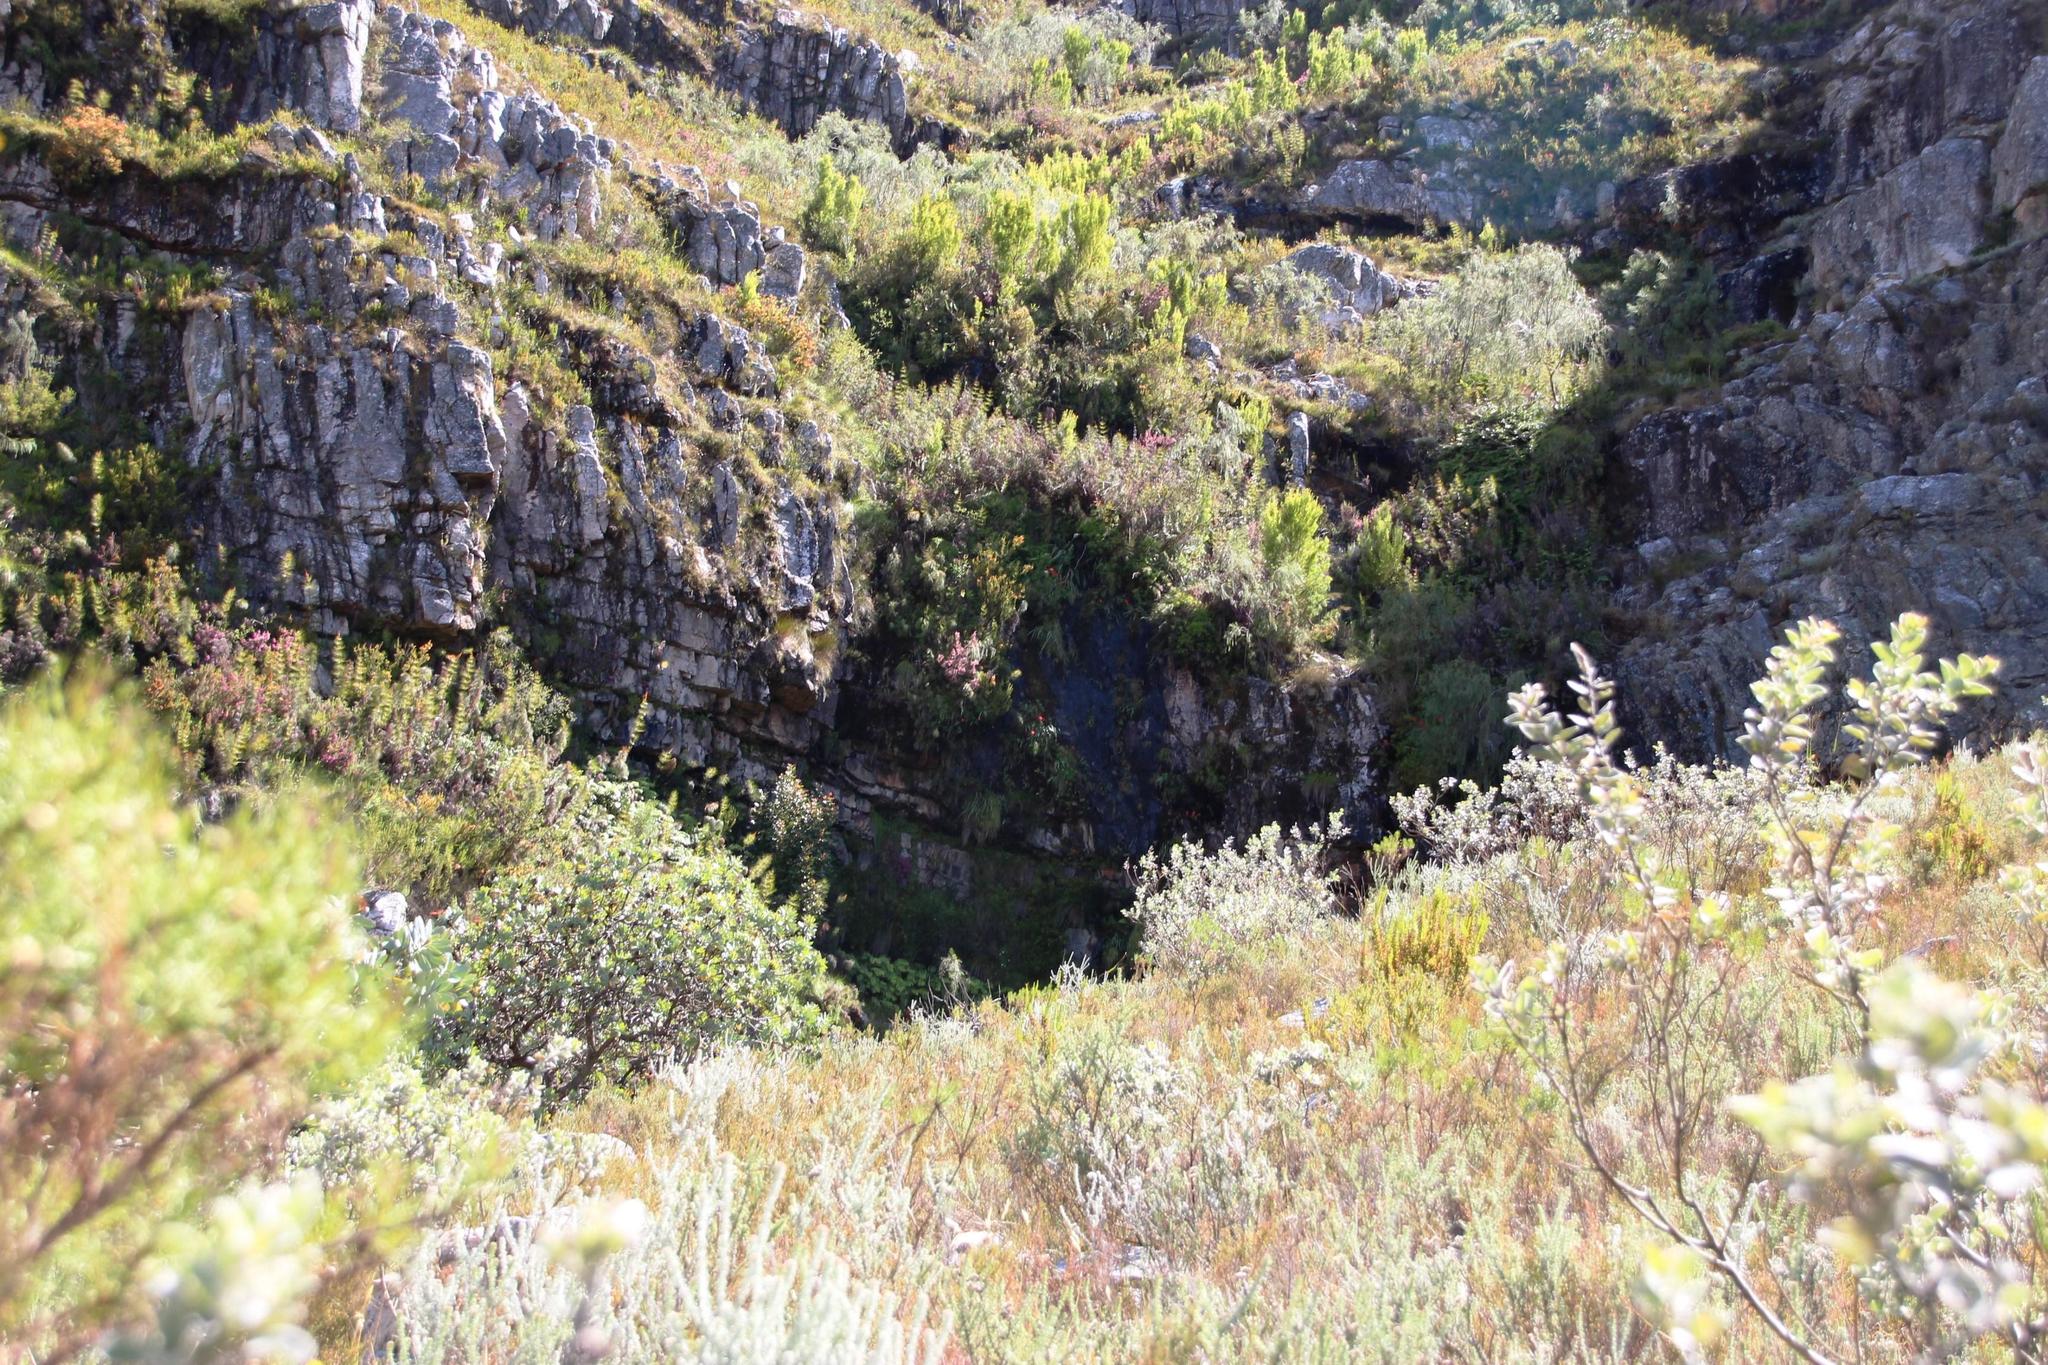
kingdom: Plantae
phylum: Tracheophyta
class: Liliopsida
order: Asparagales
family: Iridaceae
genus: Gladiolus
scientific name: Gladiolus cardinalis
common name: New year-lily
